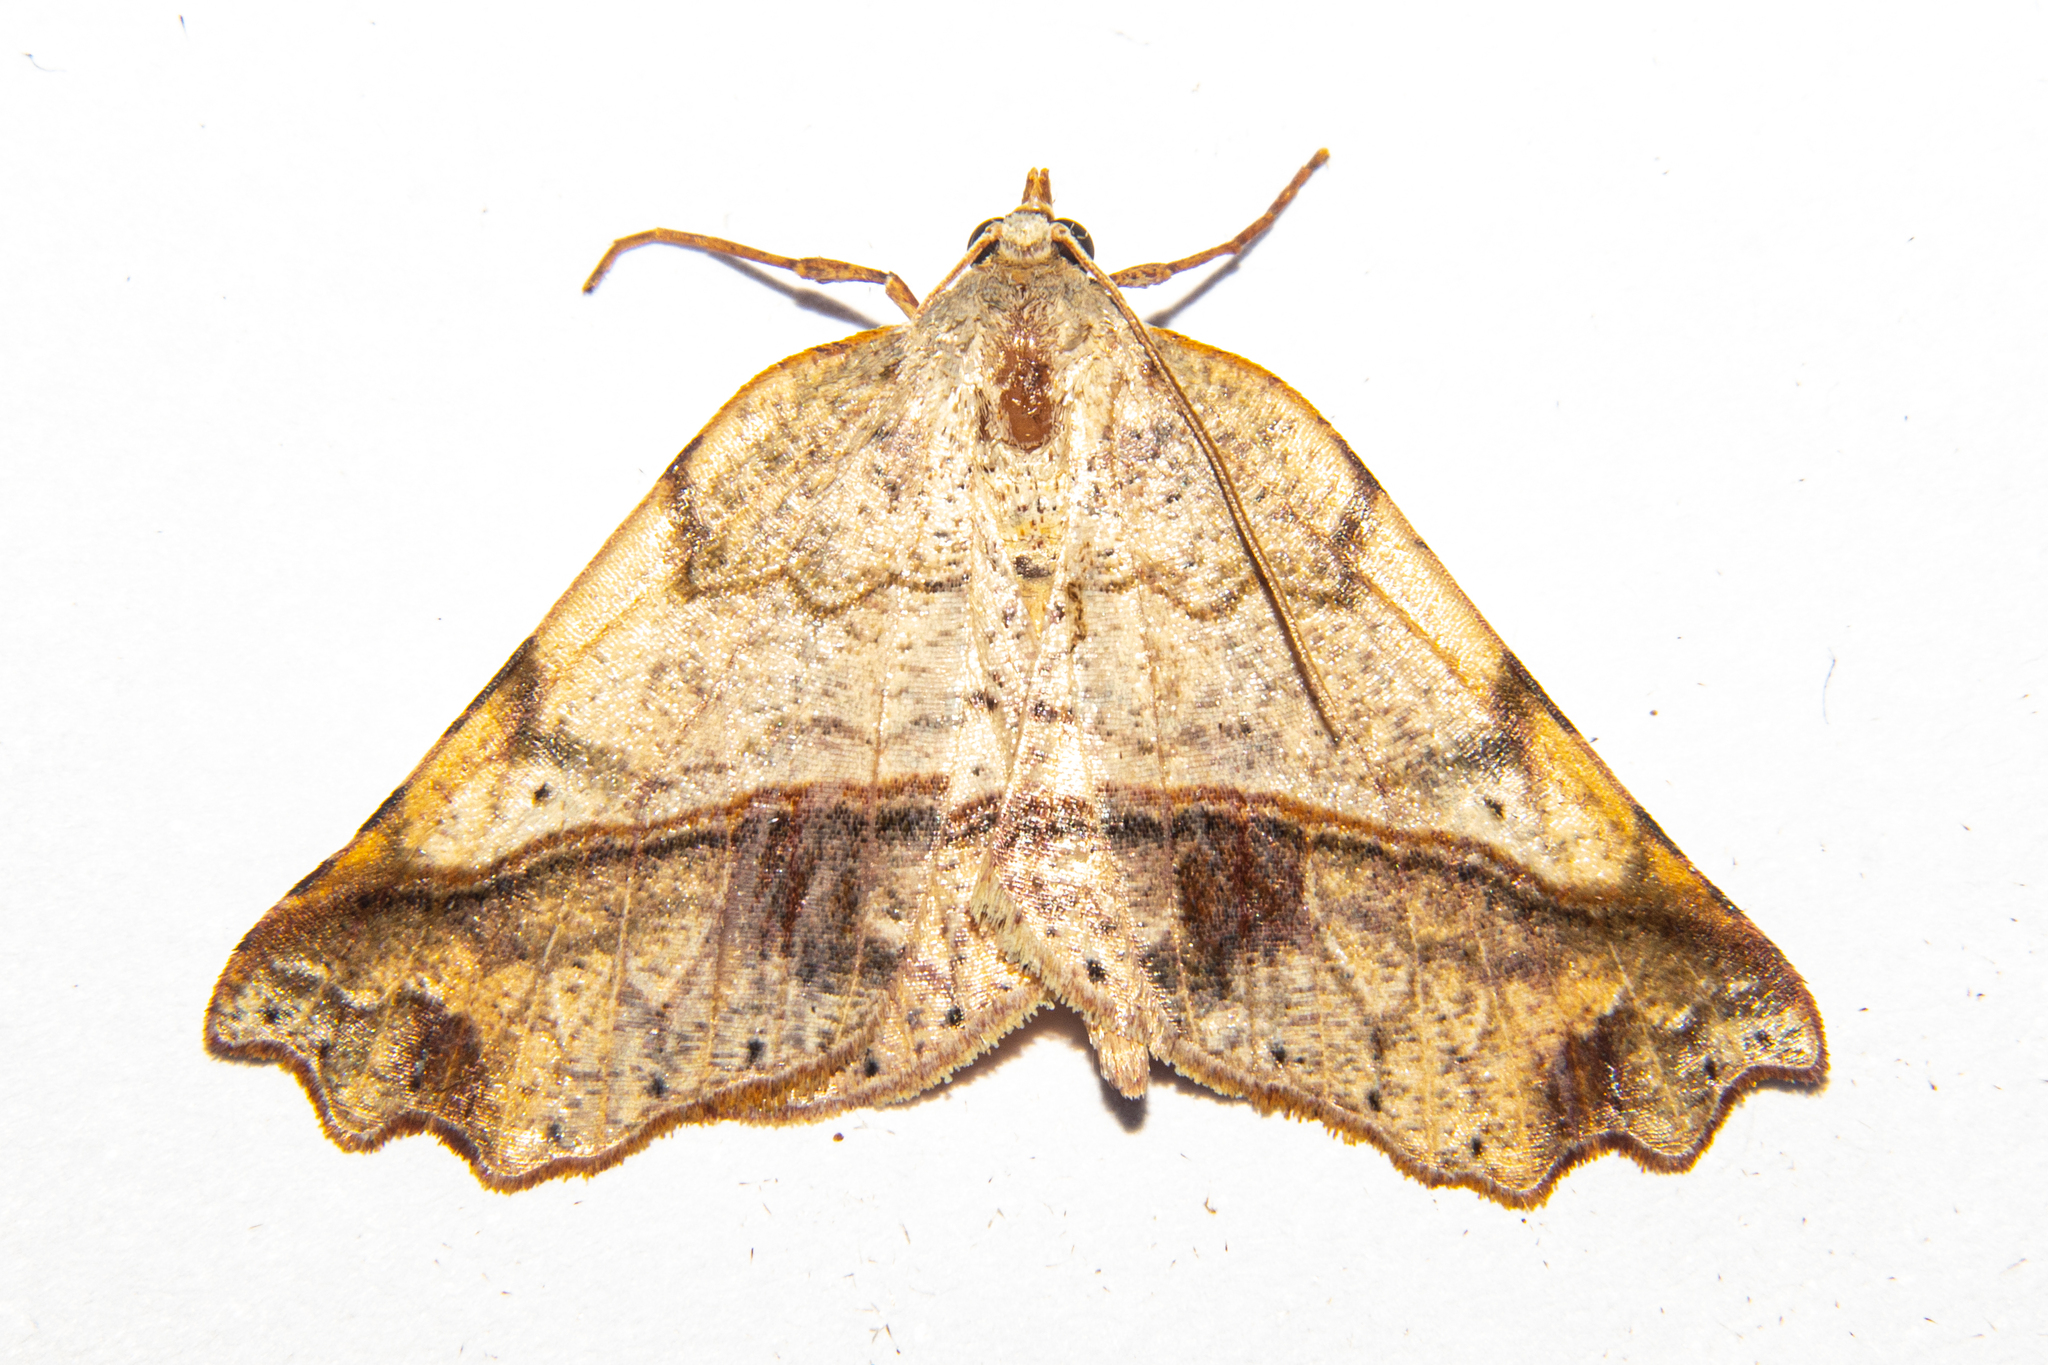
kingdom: Animalia
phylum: Arthropoda
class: Insecta
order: Lepidoptera
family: Geometridae
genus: Ischalis
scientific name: Ischalis gallaria
